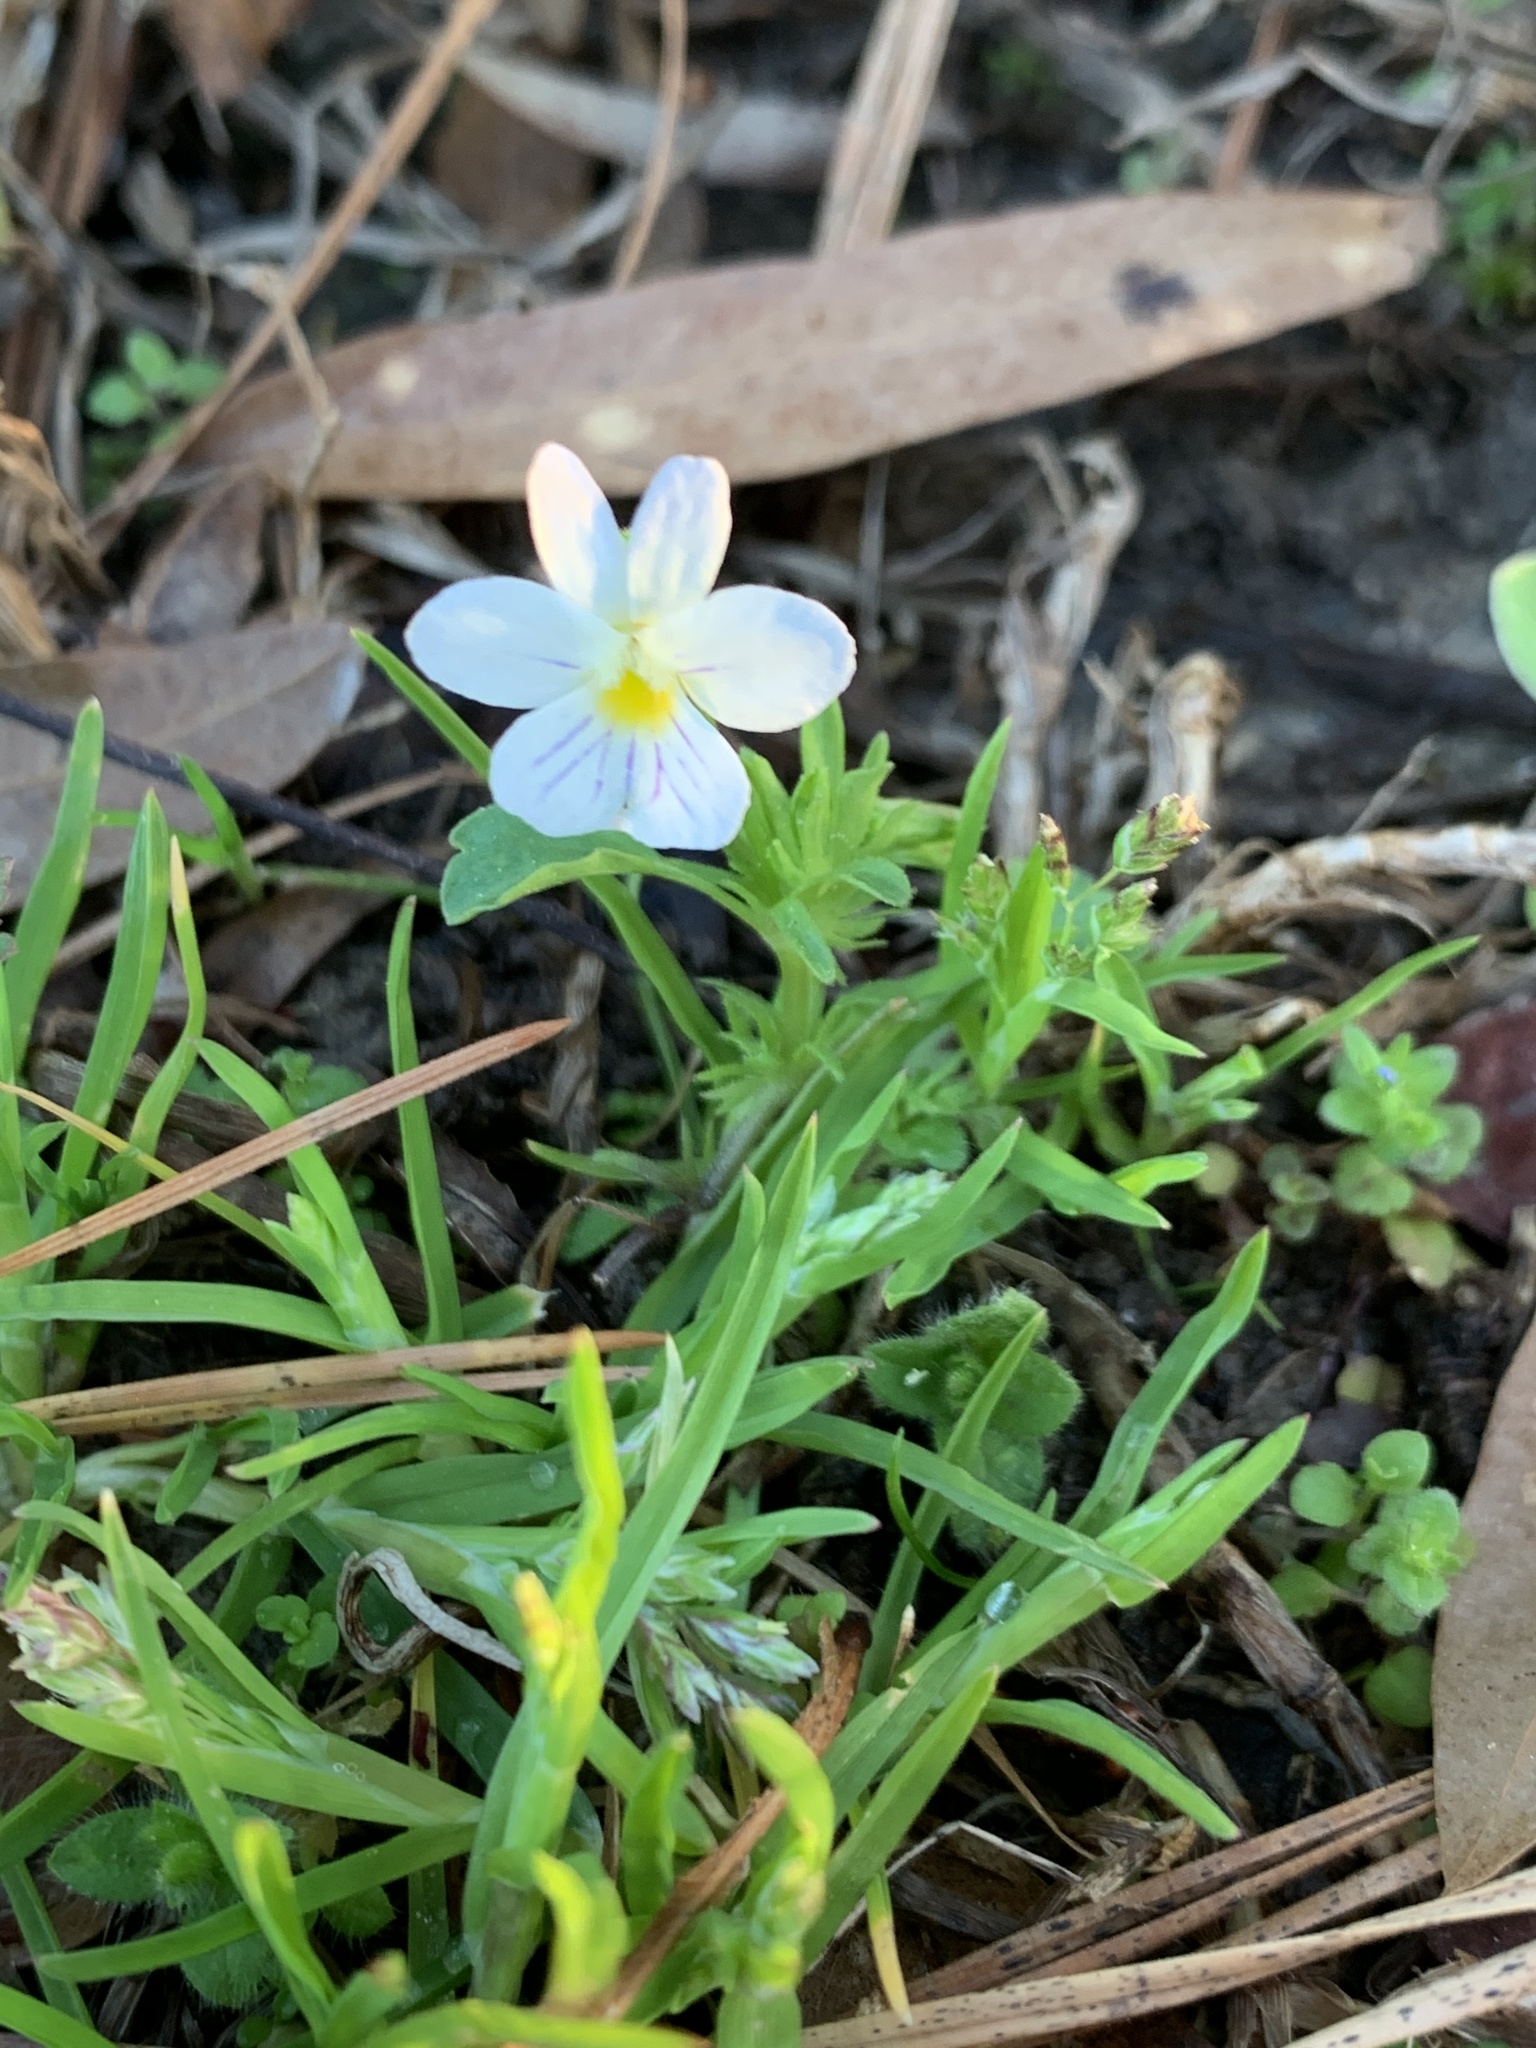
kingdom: Plantae
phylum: Tracheophyta
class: Magnoliopsida
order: Malpighiales
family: Violaceae
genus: Viola
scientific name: Viola rafinesquei
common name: American field pansy
